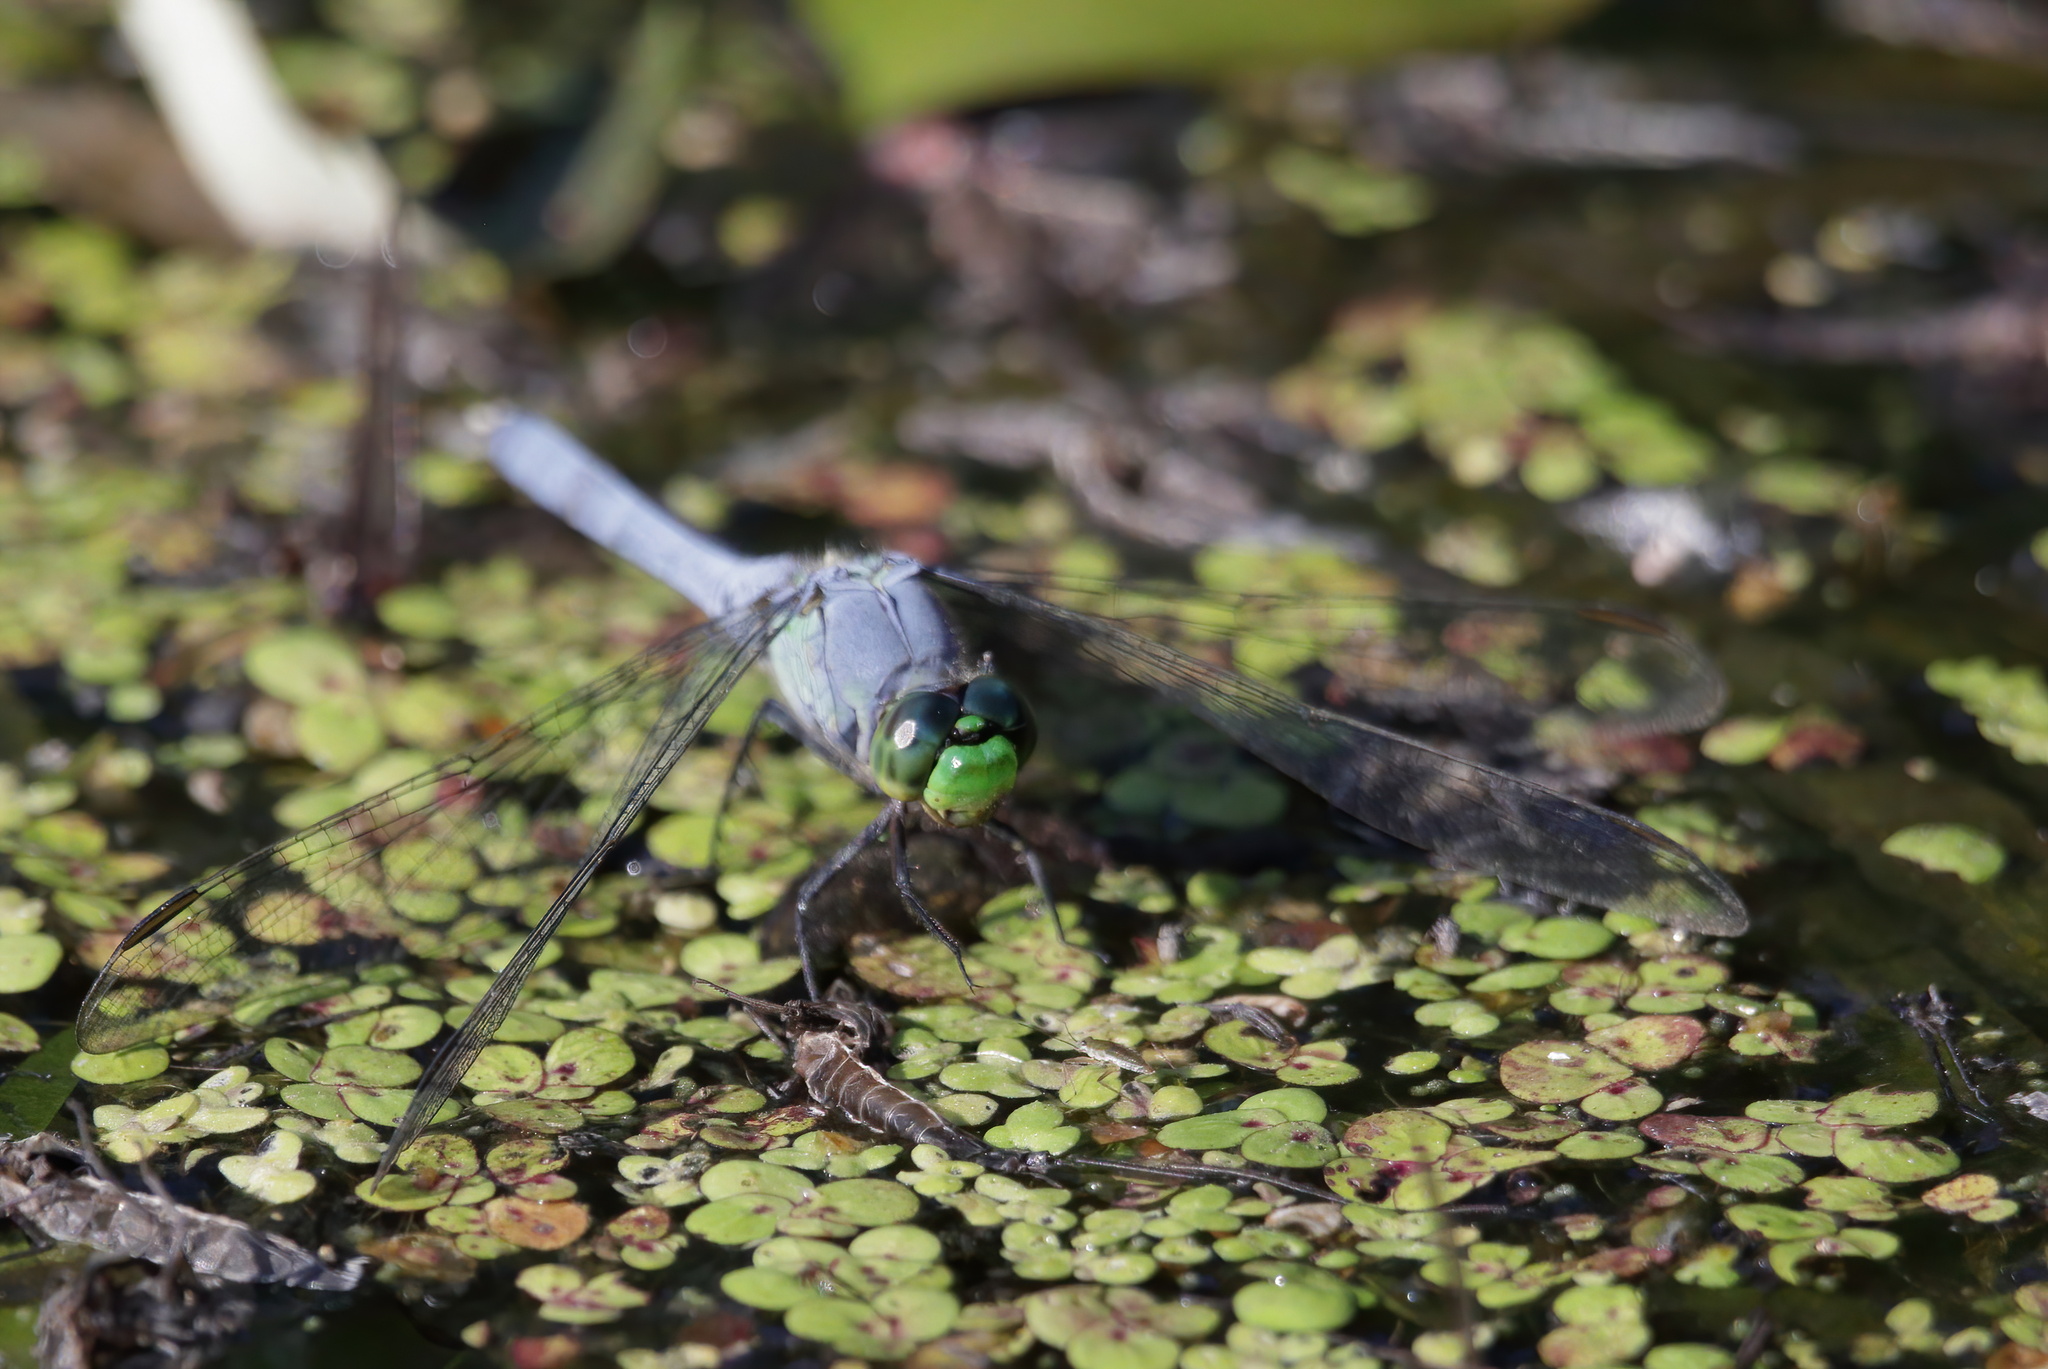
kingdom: Animalia
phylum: Arthropoda
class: Insecta
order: Odonata
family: Libellulidae
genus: Erythemis
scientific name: Erythemis simplicicollis
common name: Eastern pondhawk
